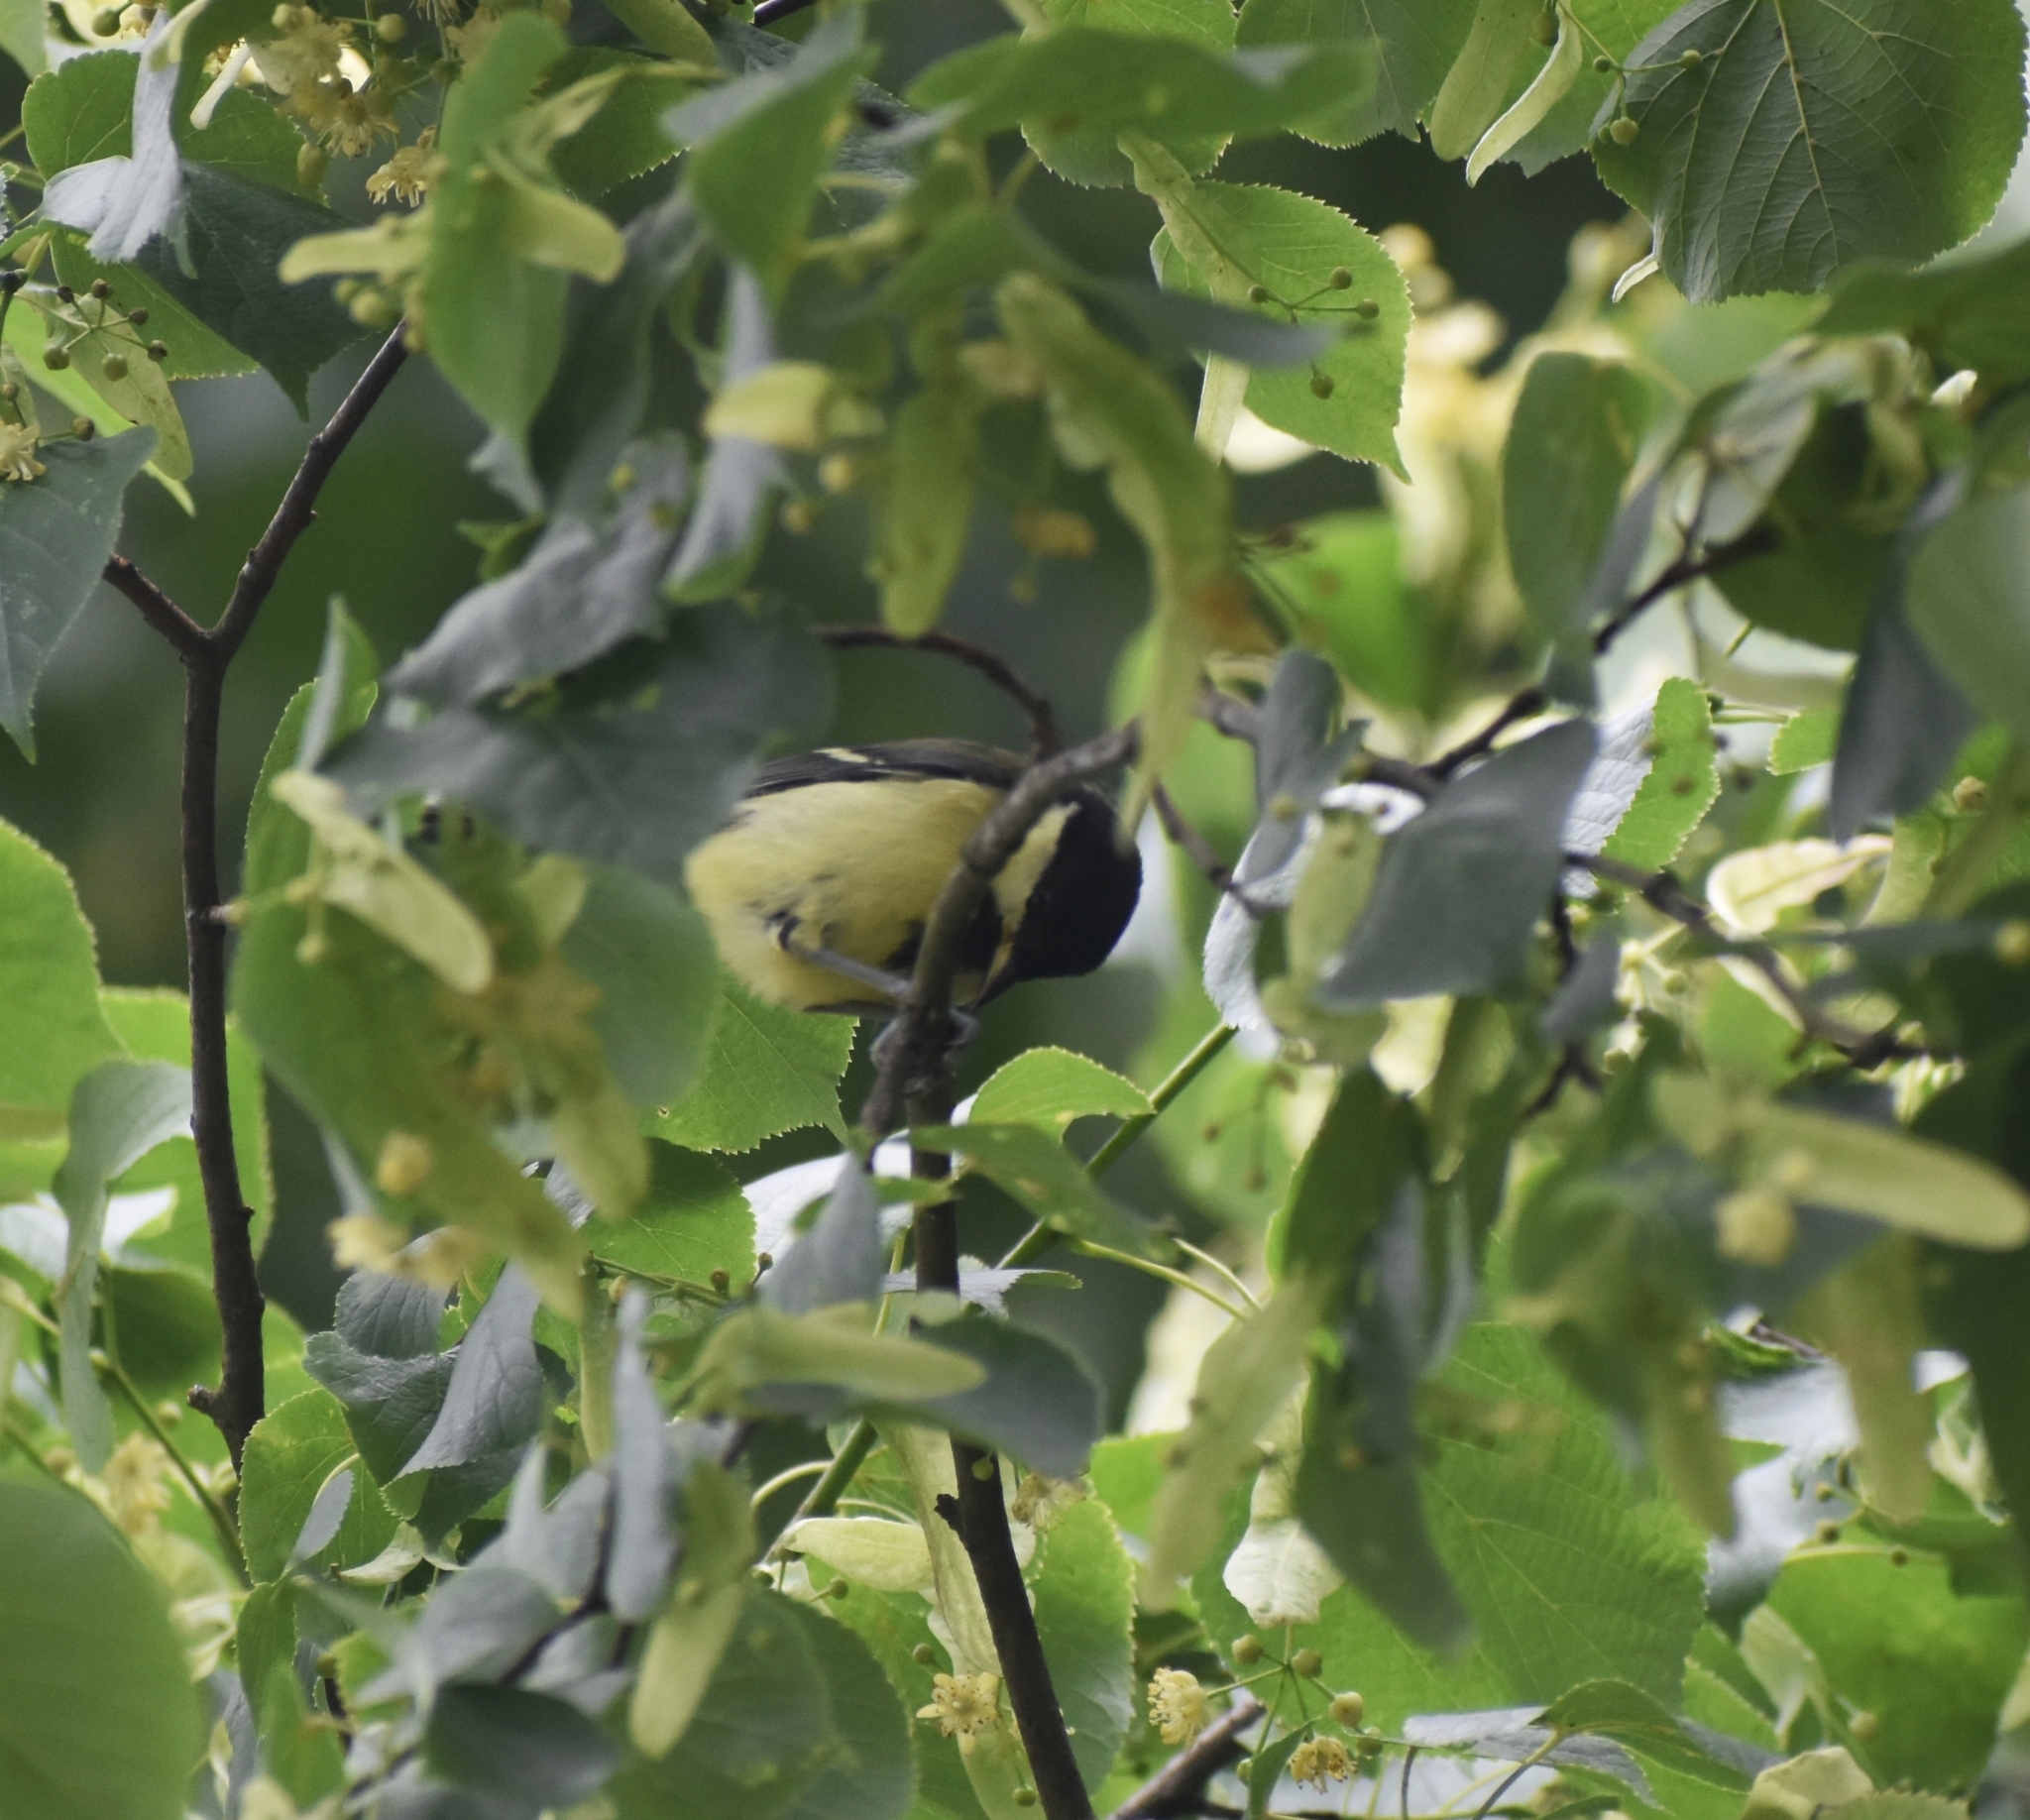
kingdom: Animalia
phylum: Chordata
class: Aves
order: Passeriformes
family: Paridae
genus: Parus
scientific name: Parus major
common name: Great tit
